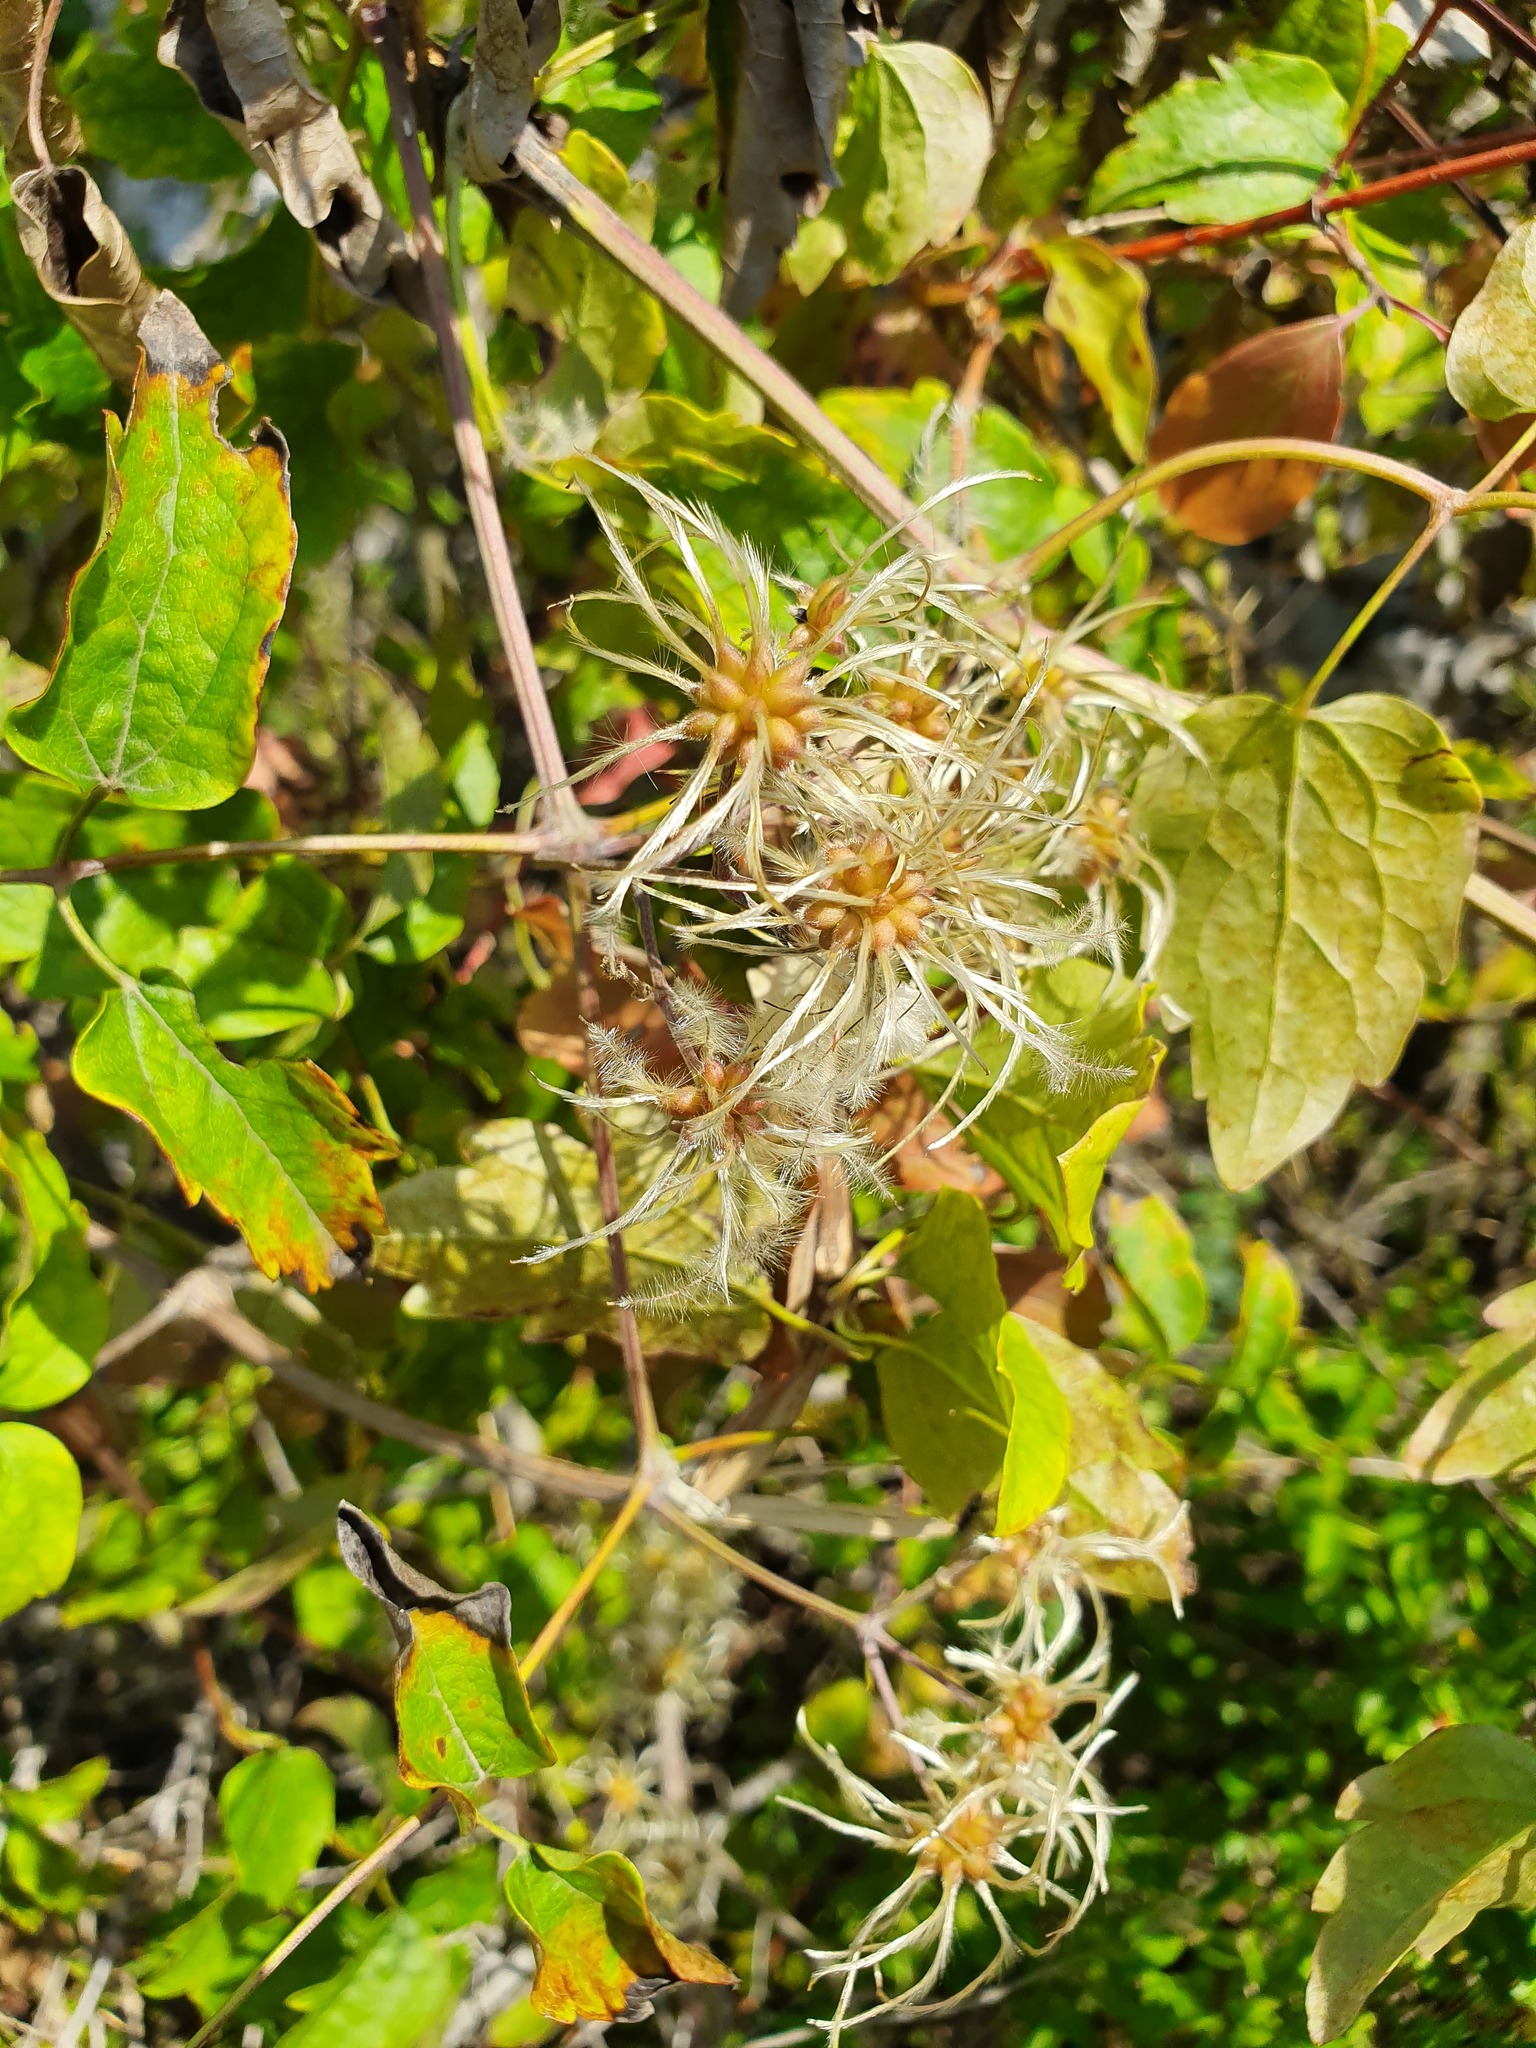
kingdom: Plantae
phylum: Tracheophyta
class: Magnoliopsida
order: Ranunculales
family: Ranunculaceae
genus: Clematis
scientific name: Clematis vitalba
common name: Evergreen clematis
